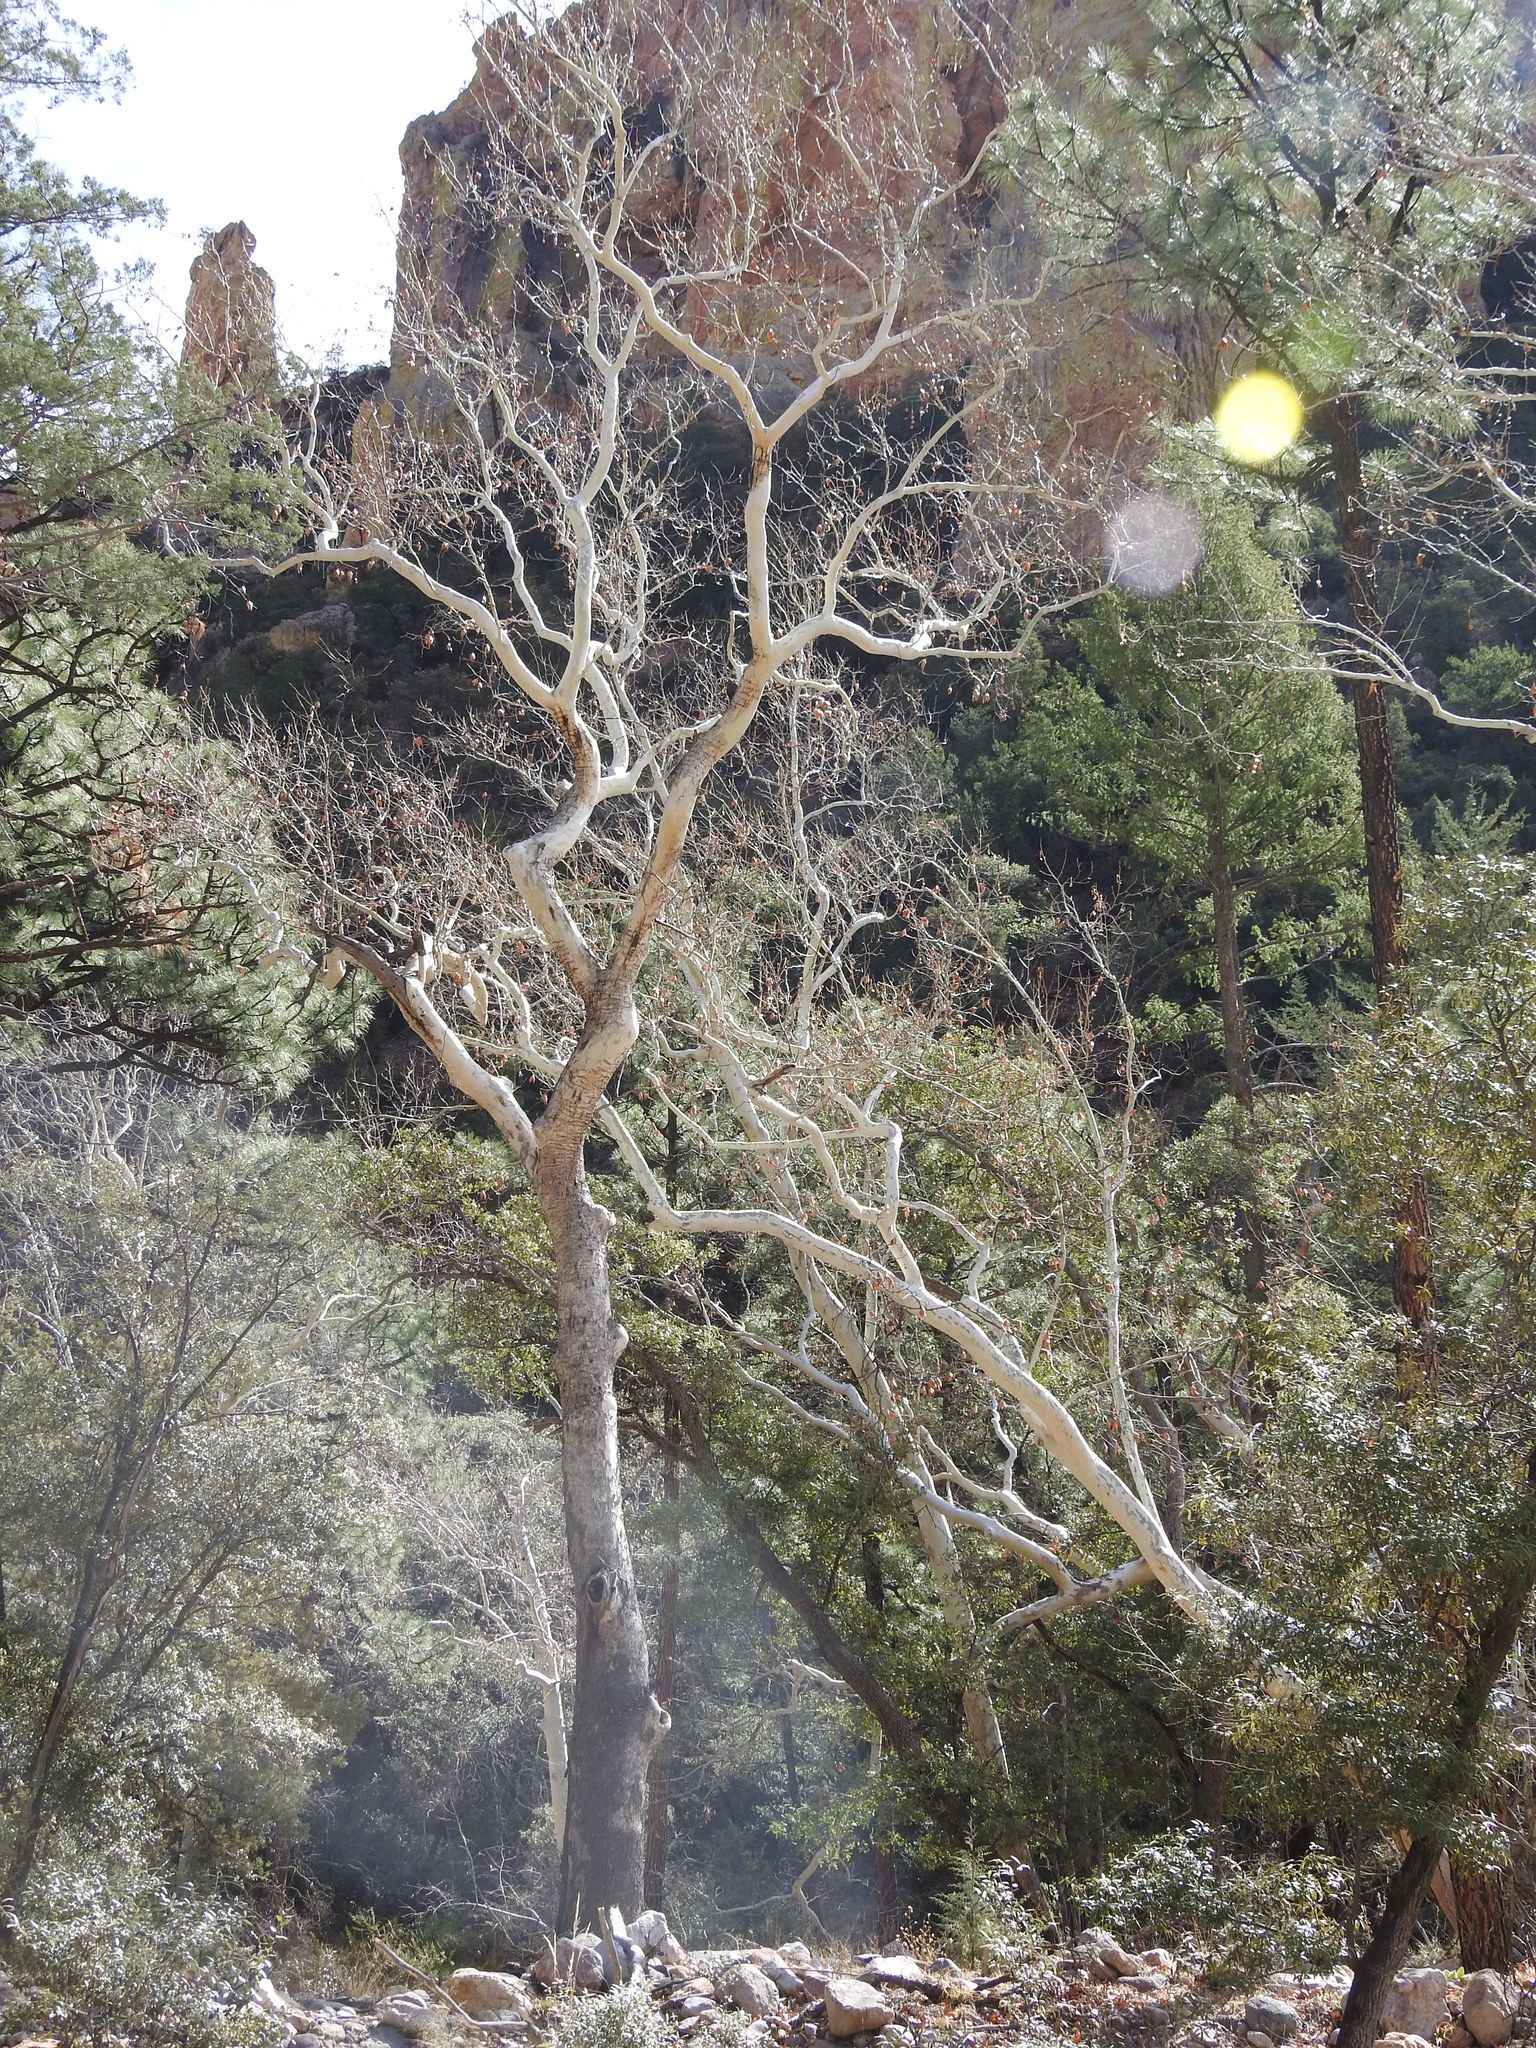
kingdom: Plantae
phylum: Tracheophyta
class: Magnoliopsida
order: Proteales
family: Platanaceae
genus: Platanus
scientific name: Platanus wrightii
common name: Arizona sycamore
